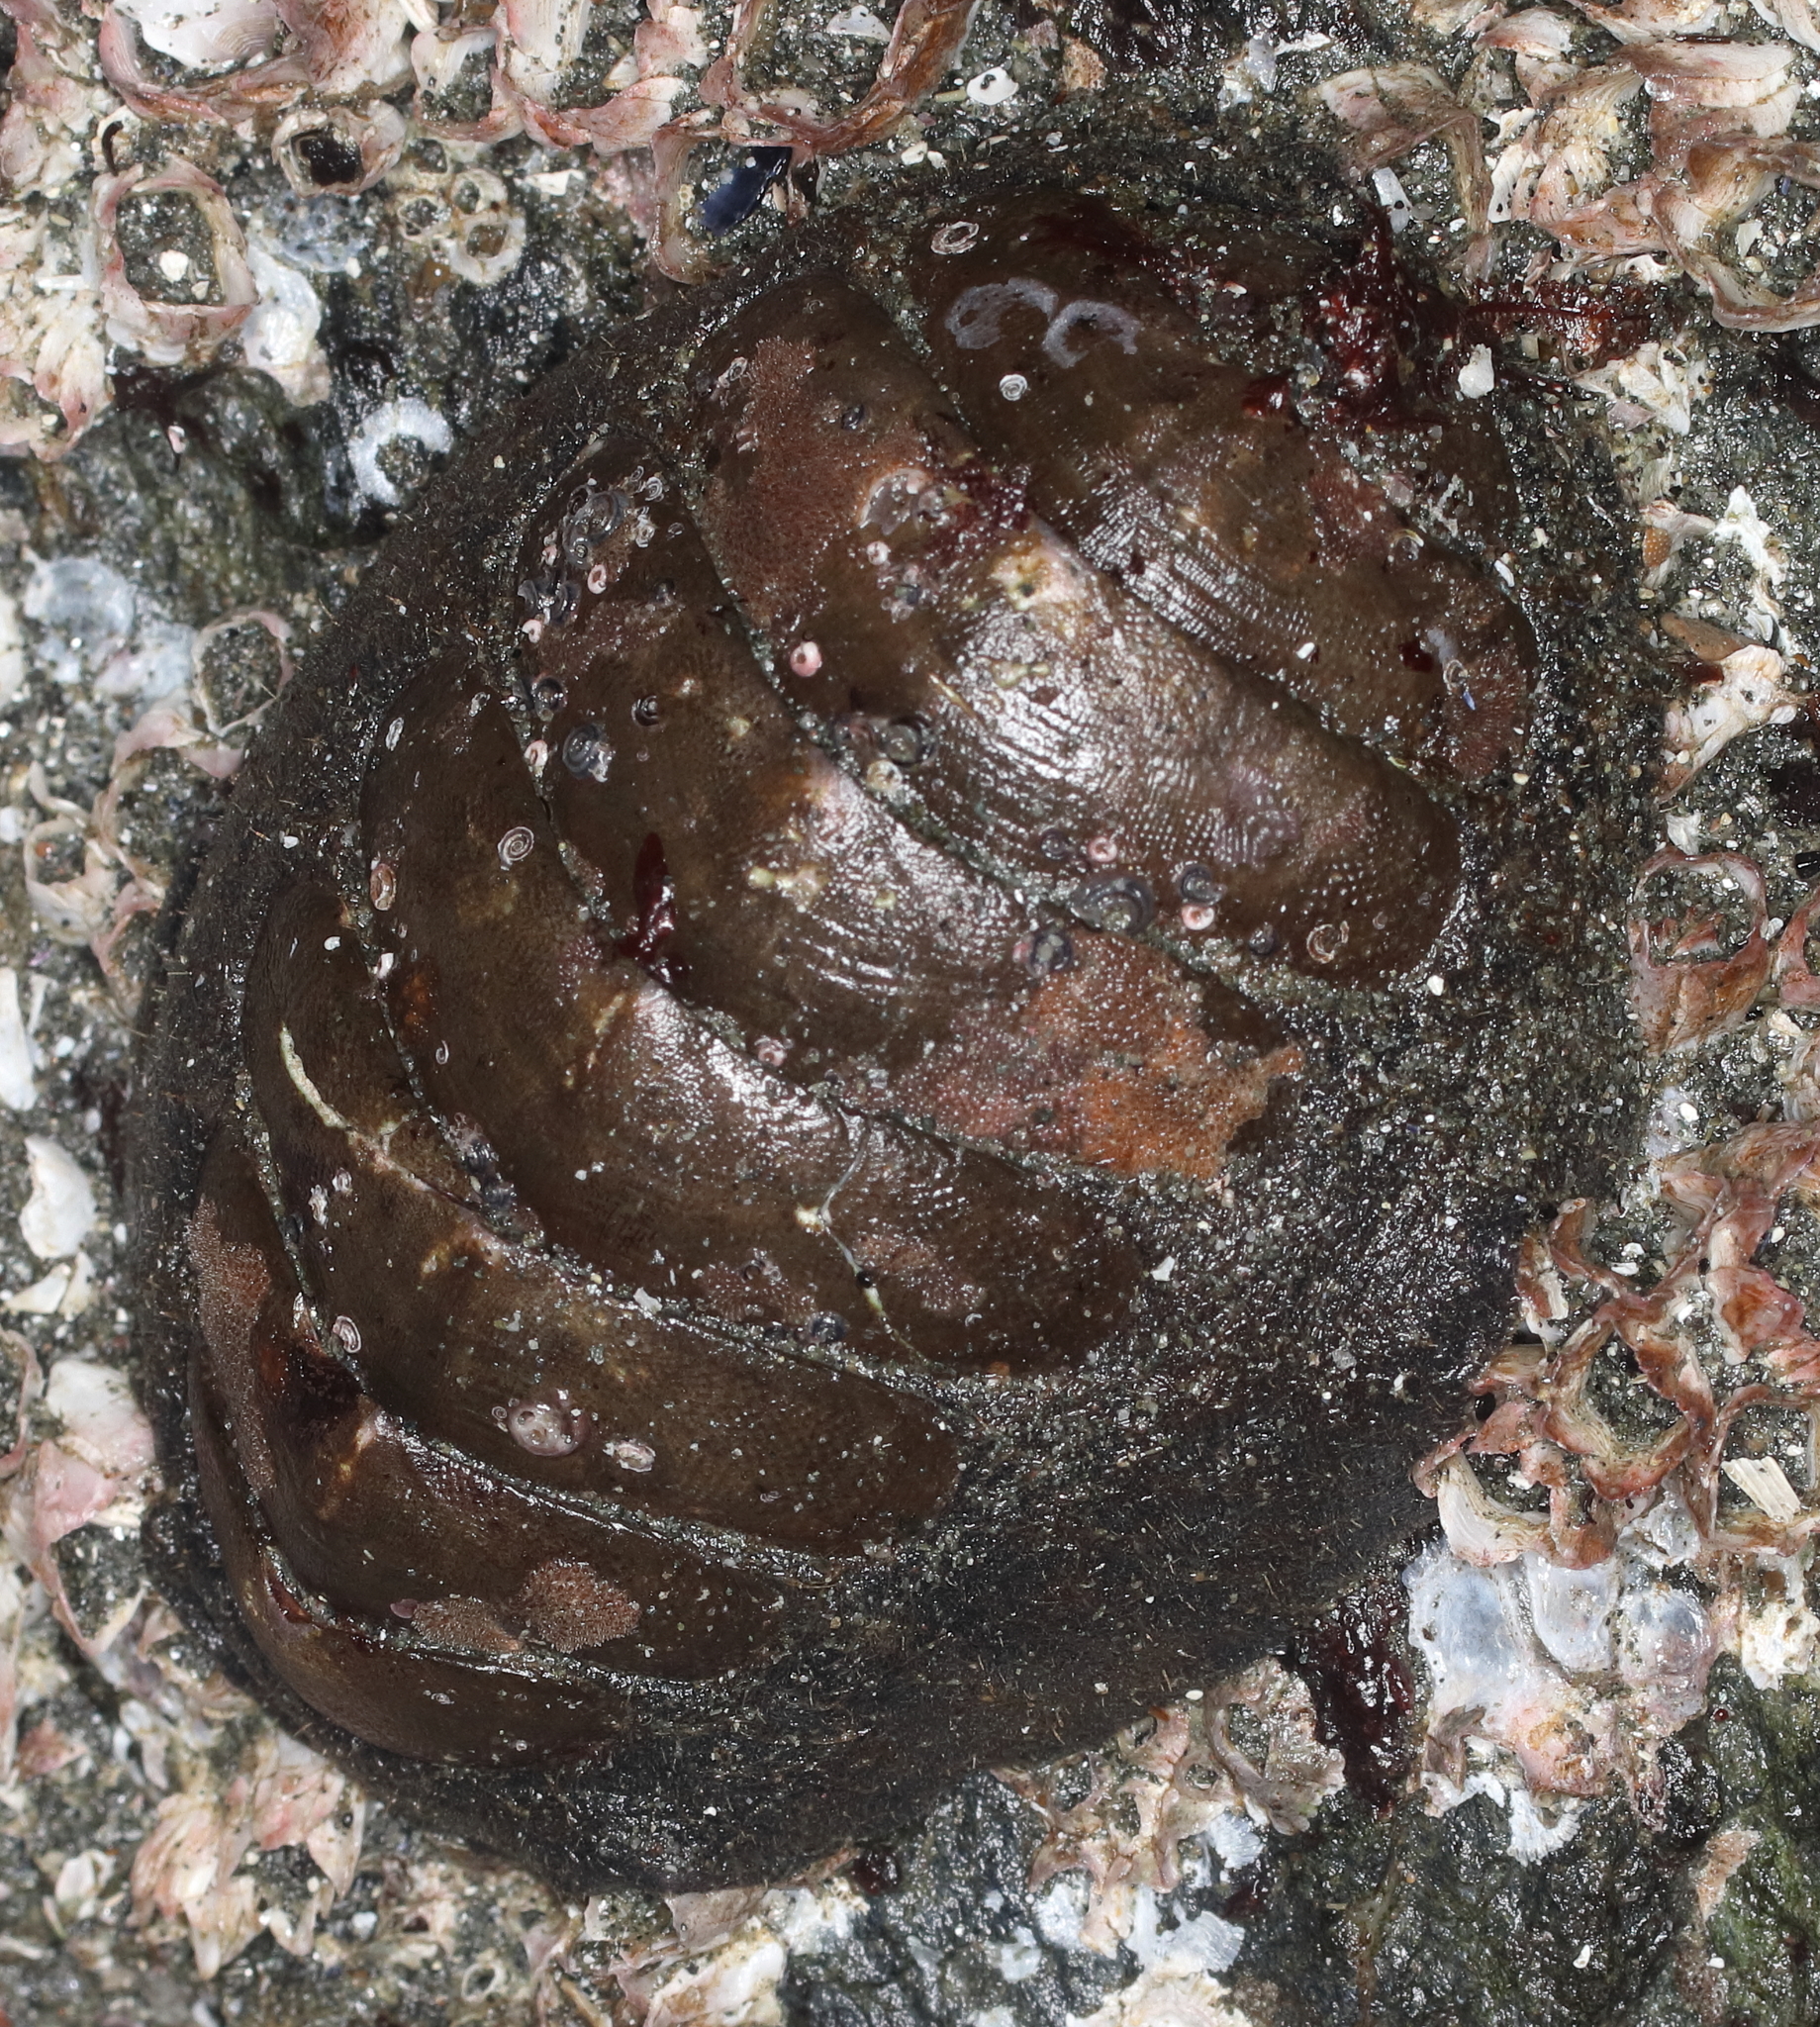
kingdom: Animalia
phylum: Mollusca
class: Polyplacophora
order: Chitonida
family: Mopaliidae
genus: Mopalia
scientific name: Mopalia hindsii
